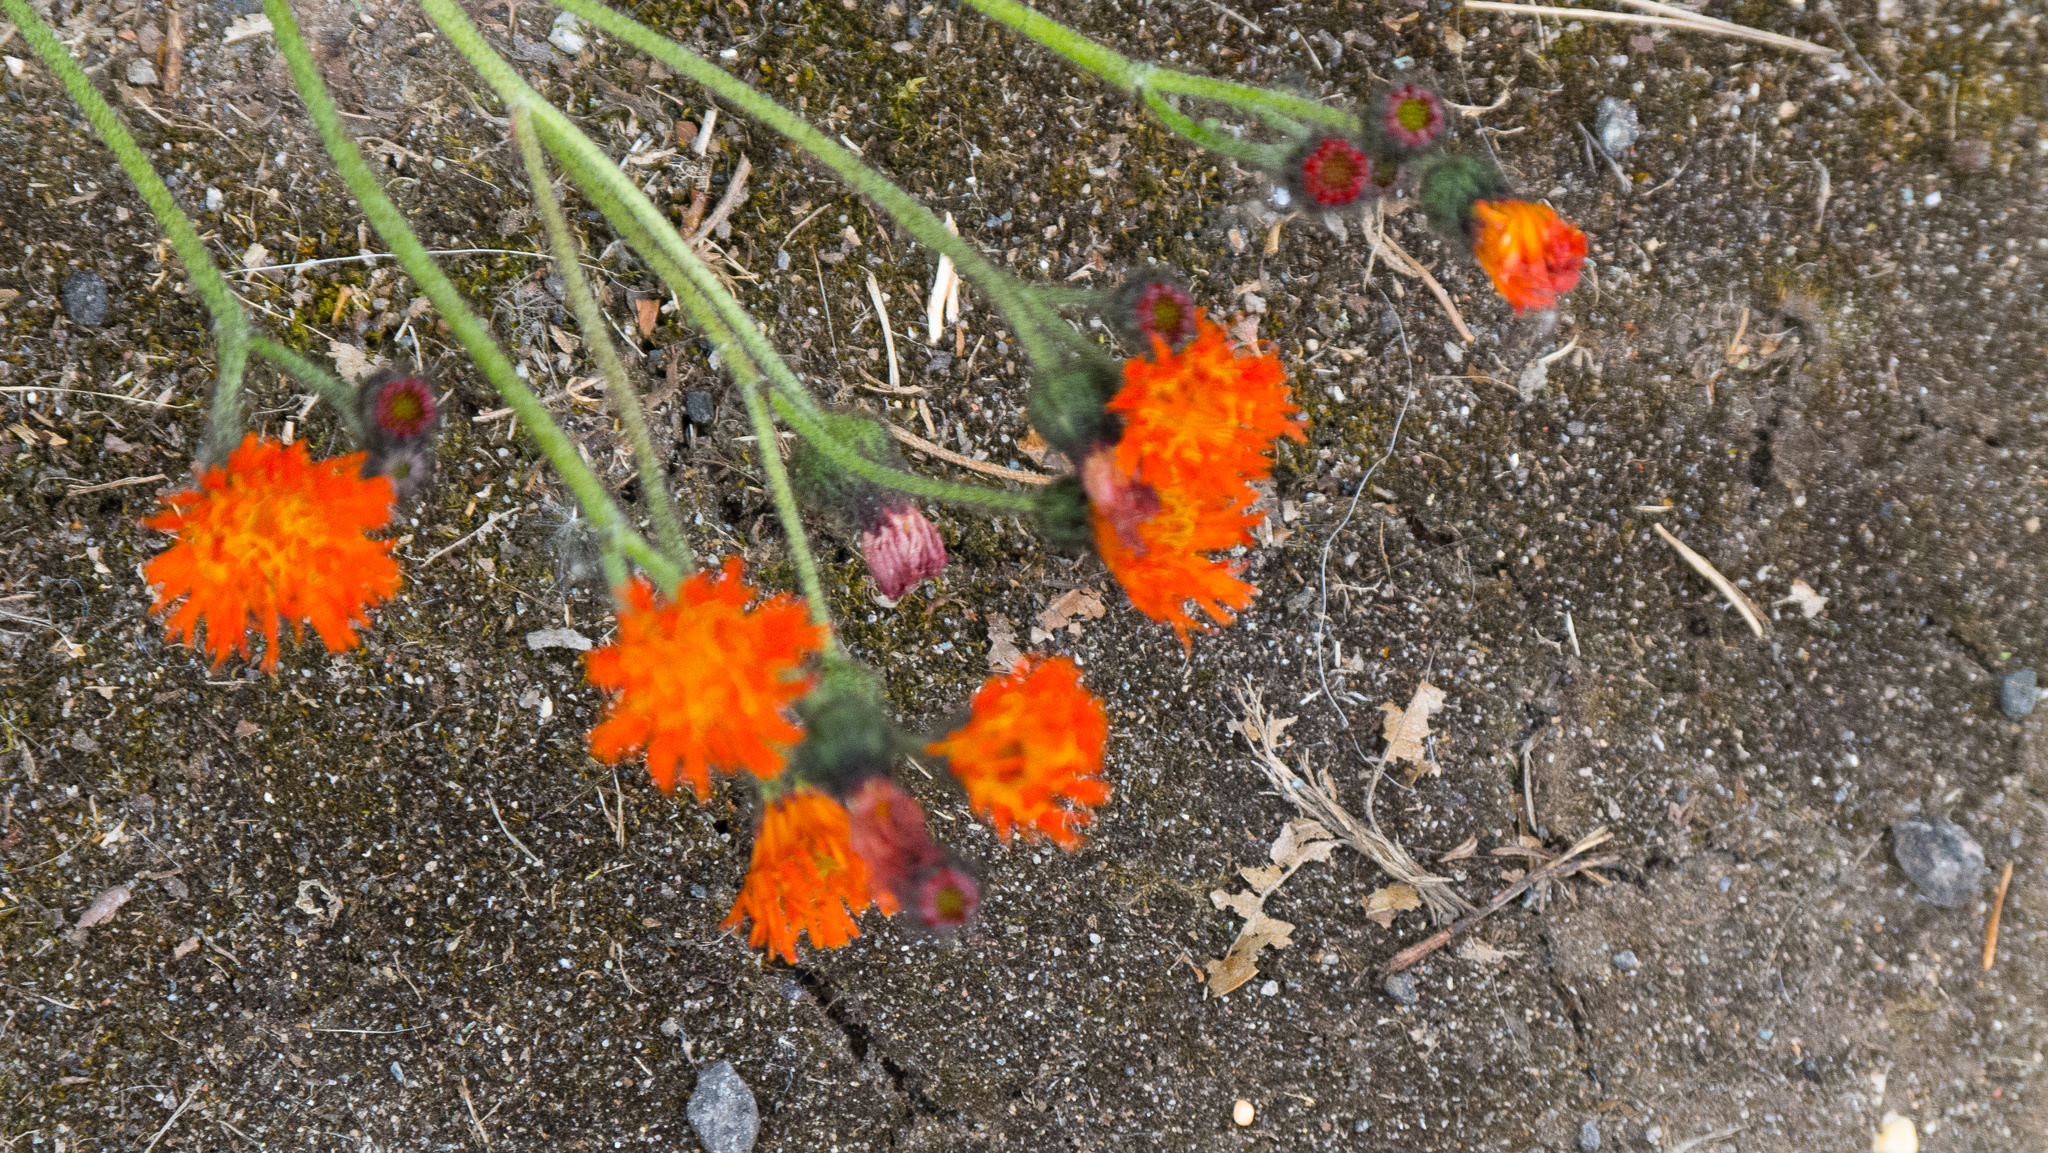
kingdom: Plantae
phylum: Tracheophyta
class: Magnoliopsida
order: Asterales
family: Asteraceae
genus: Pilosella
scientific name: Pilosella aurantiaca
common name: Fox-and-cubs
